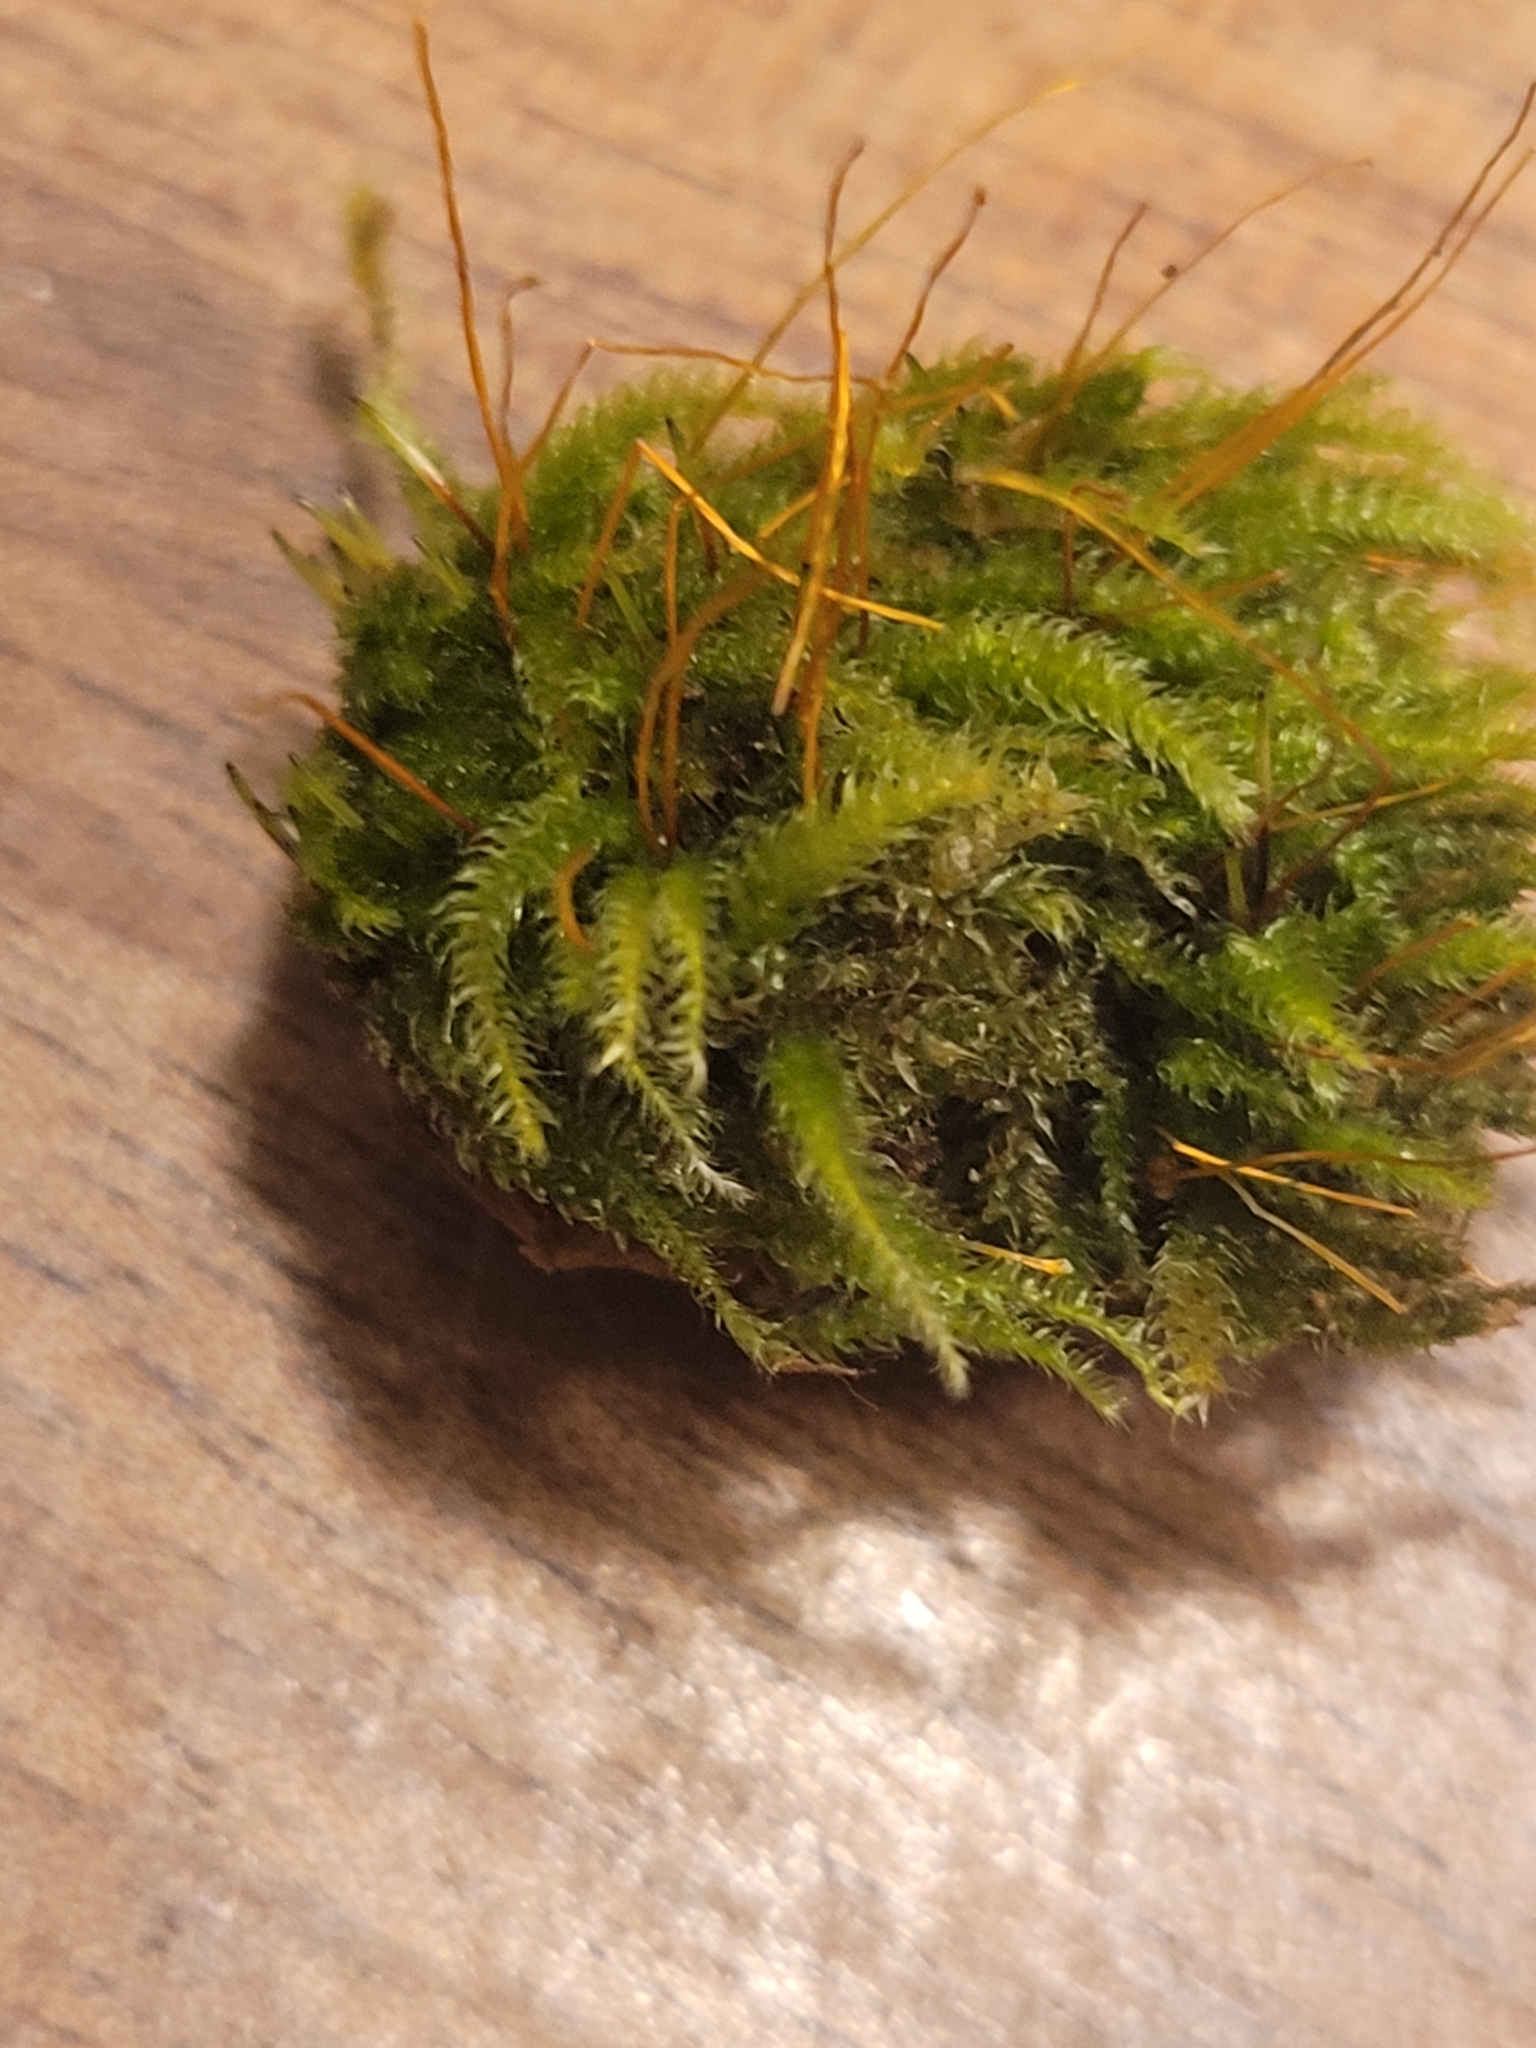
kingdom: Plantae
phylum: Bryophyta
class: Bryopsida
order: Hypnales
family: Plagiotheciaceae
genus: Herzogiella
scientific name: Herzogiella seligeri
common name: Silesian feather-moss
